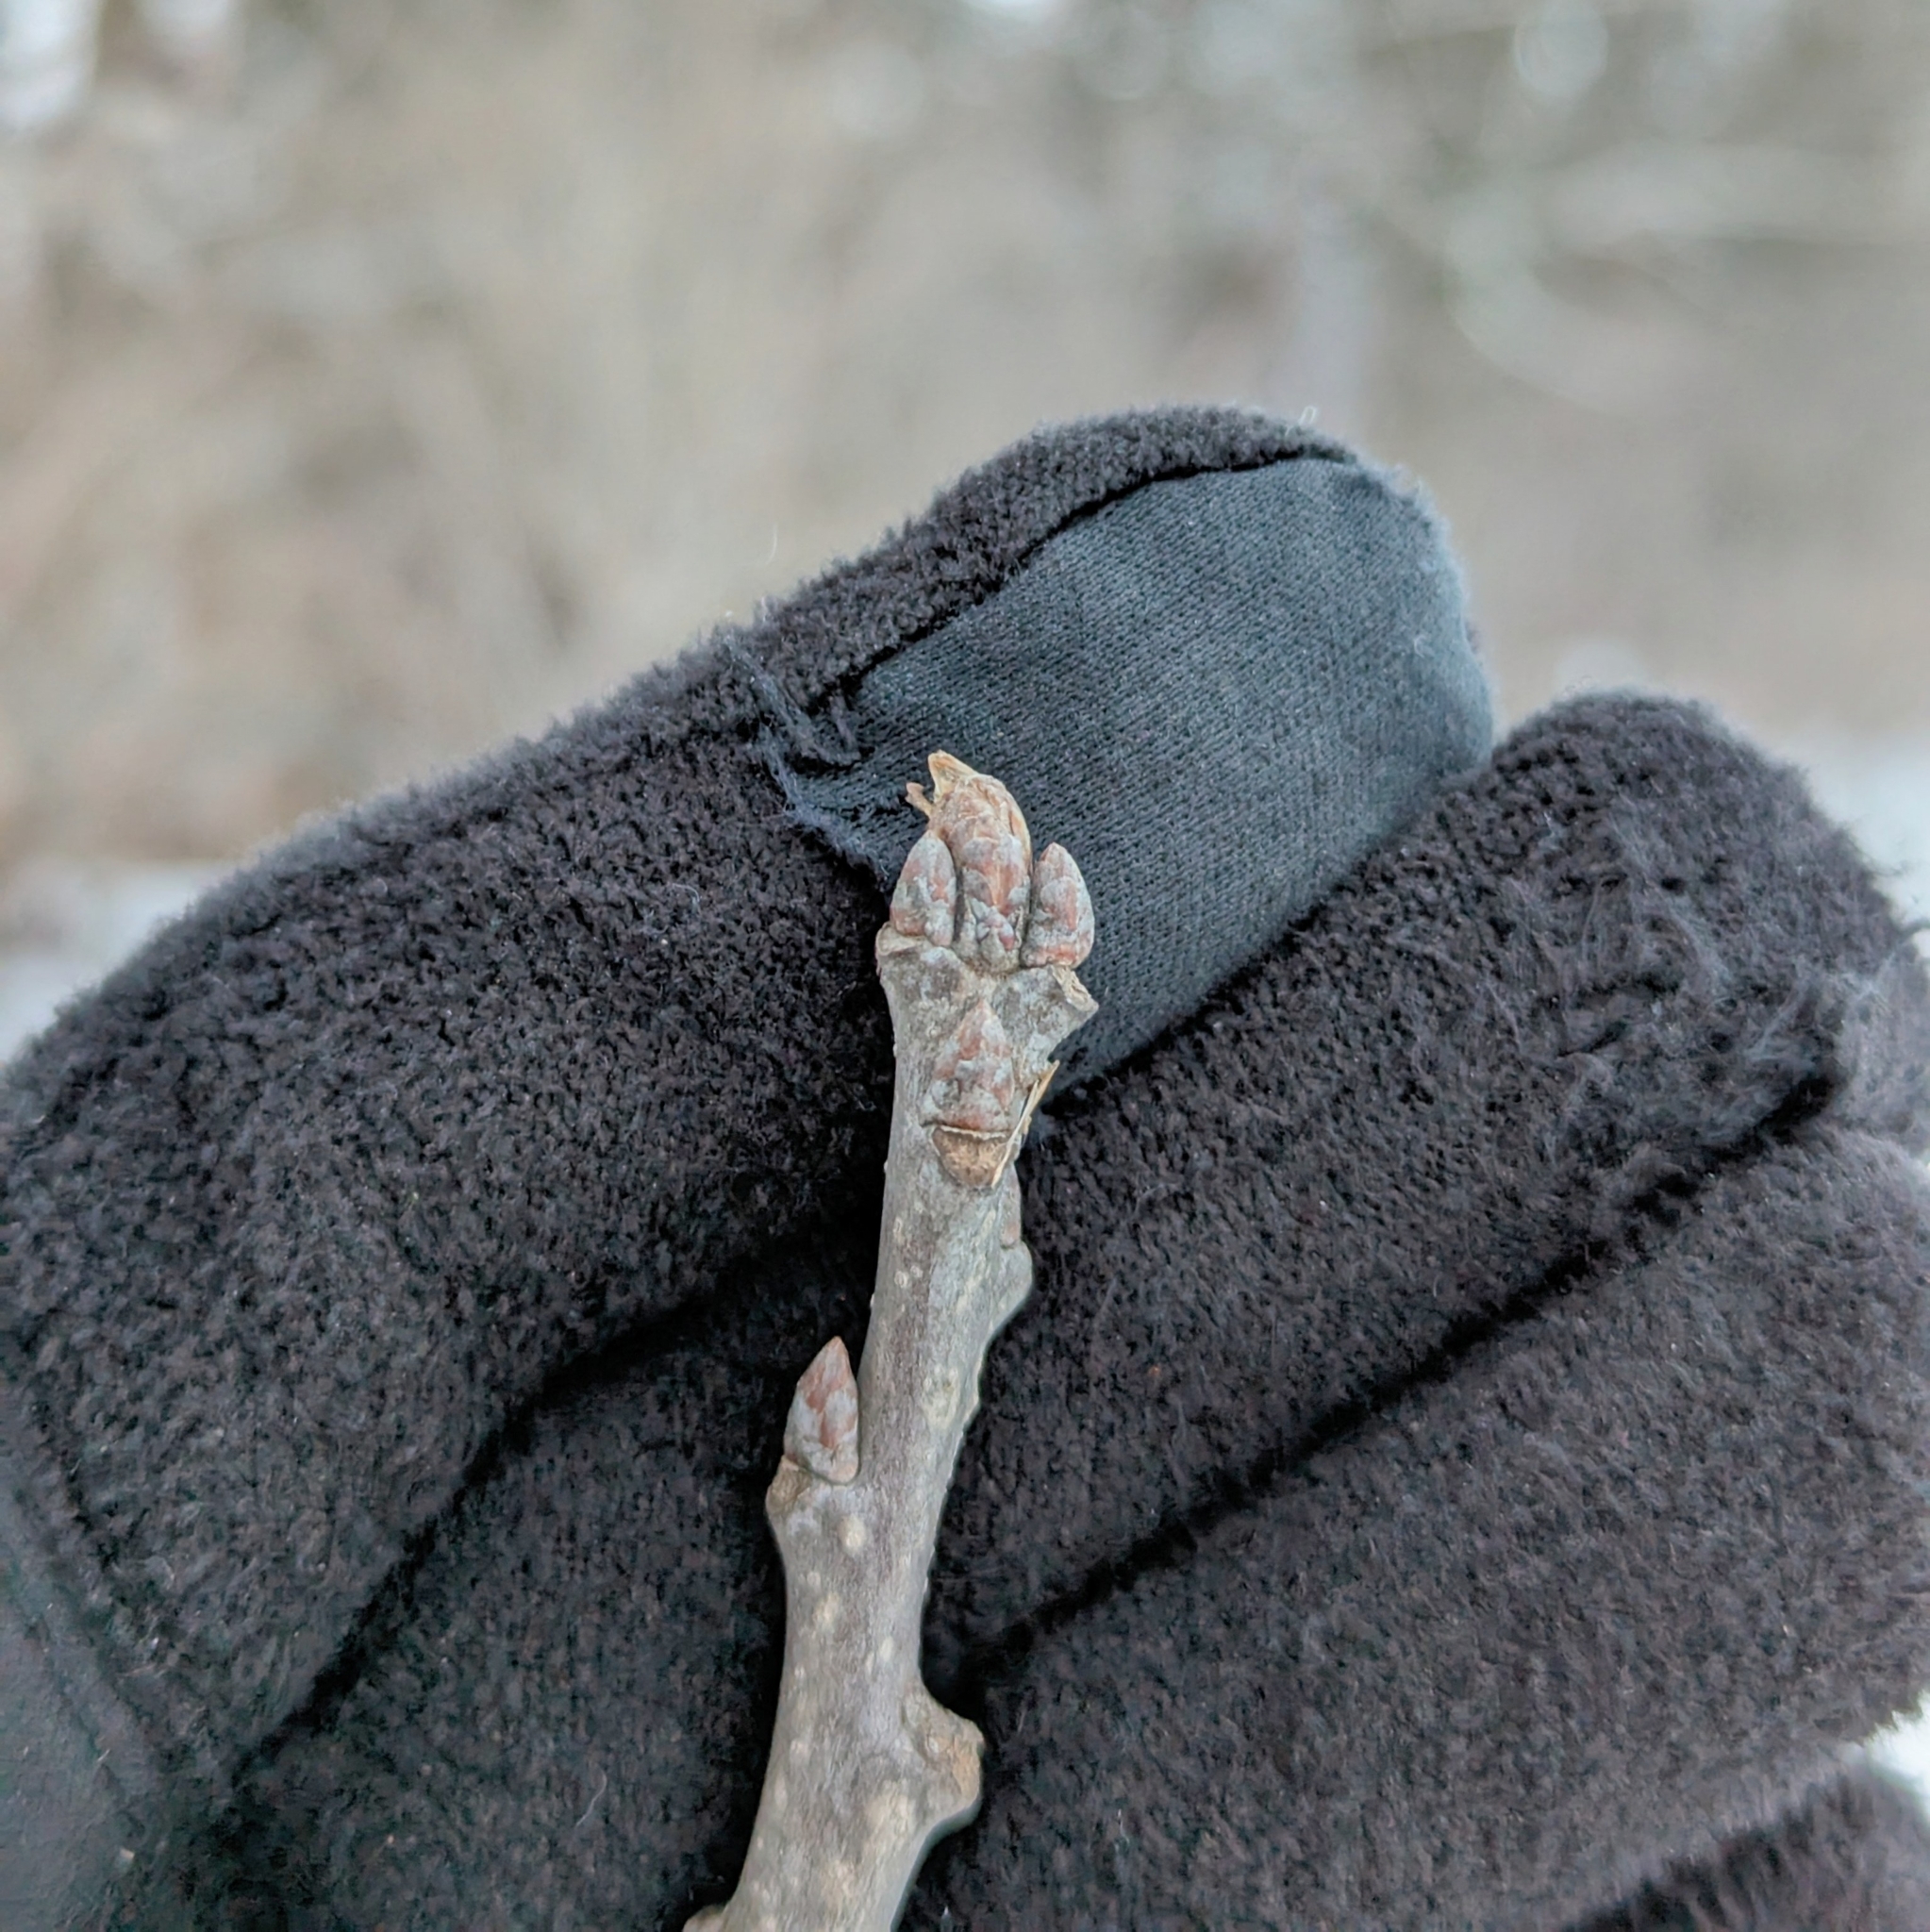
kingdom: Plantae
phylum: Tracheophyta
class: Magnoliopsida
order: Fagales
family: Fagaceae
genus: Quercus
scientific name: Quercus macrocarpa
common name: Bur oak
